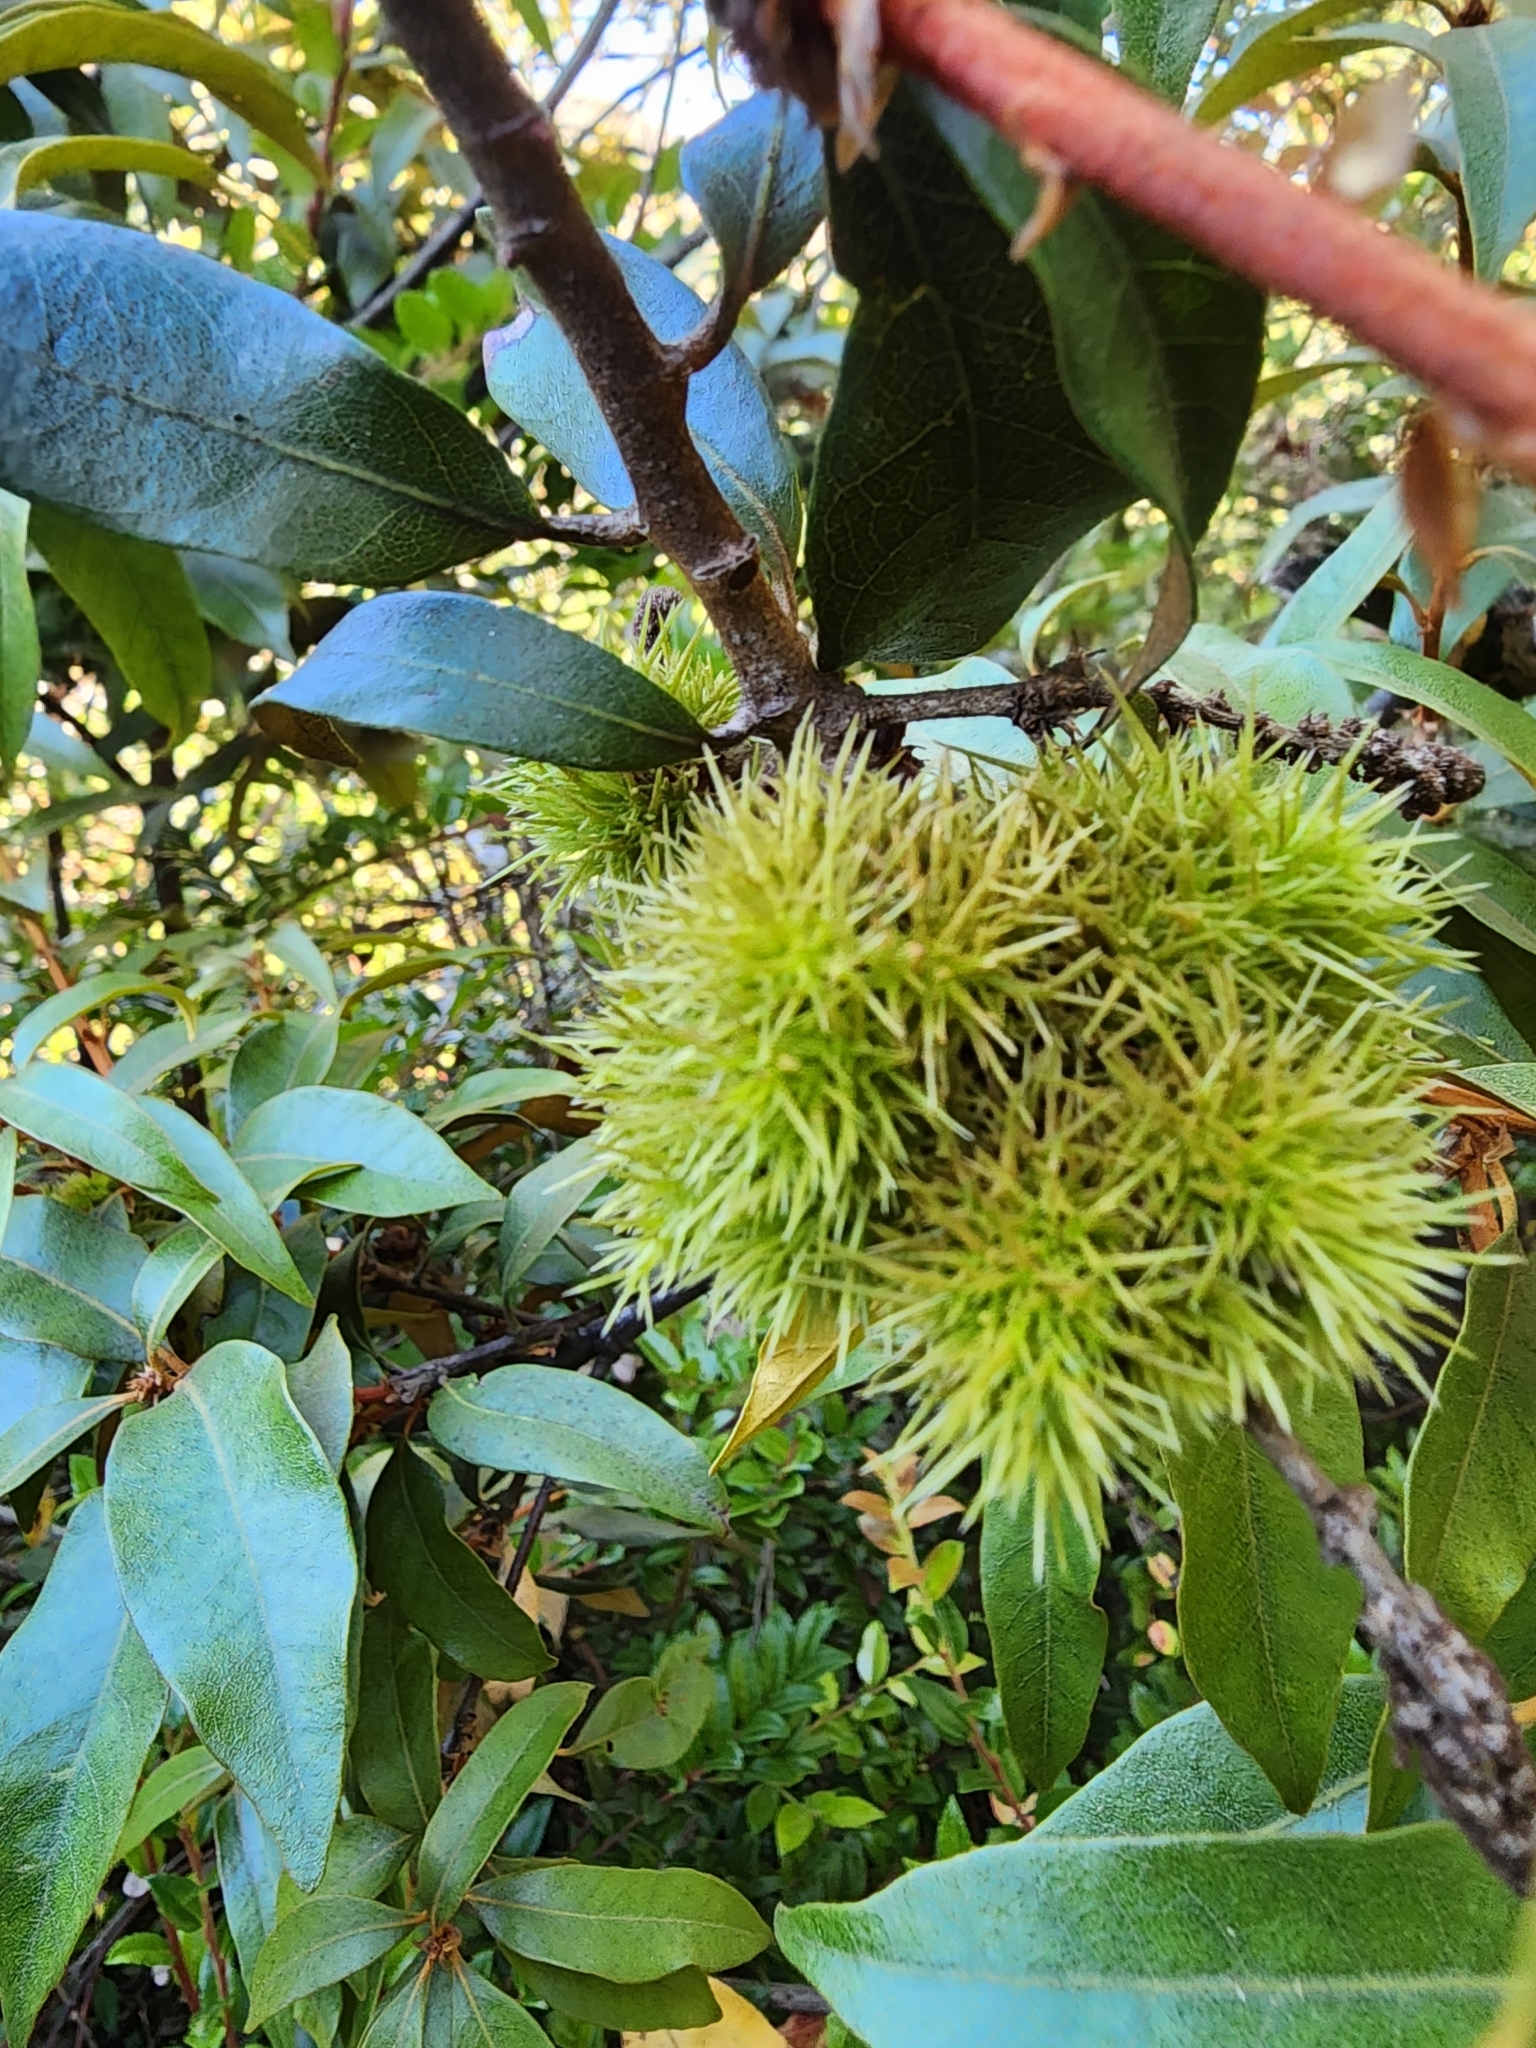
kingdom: Plantae
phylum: Tracheophyta
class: Magnoliopsida
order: Fagales
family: Fagaceae
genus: Chrysolepis
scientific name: Chrysolepis chrysophylla
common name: Giant chinquapin
